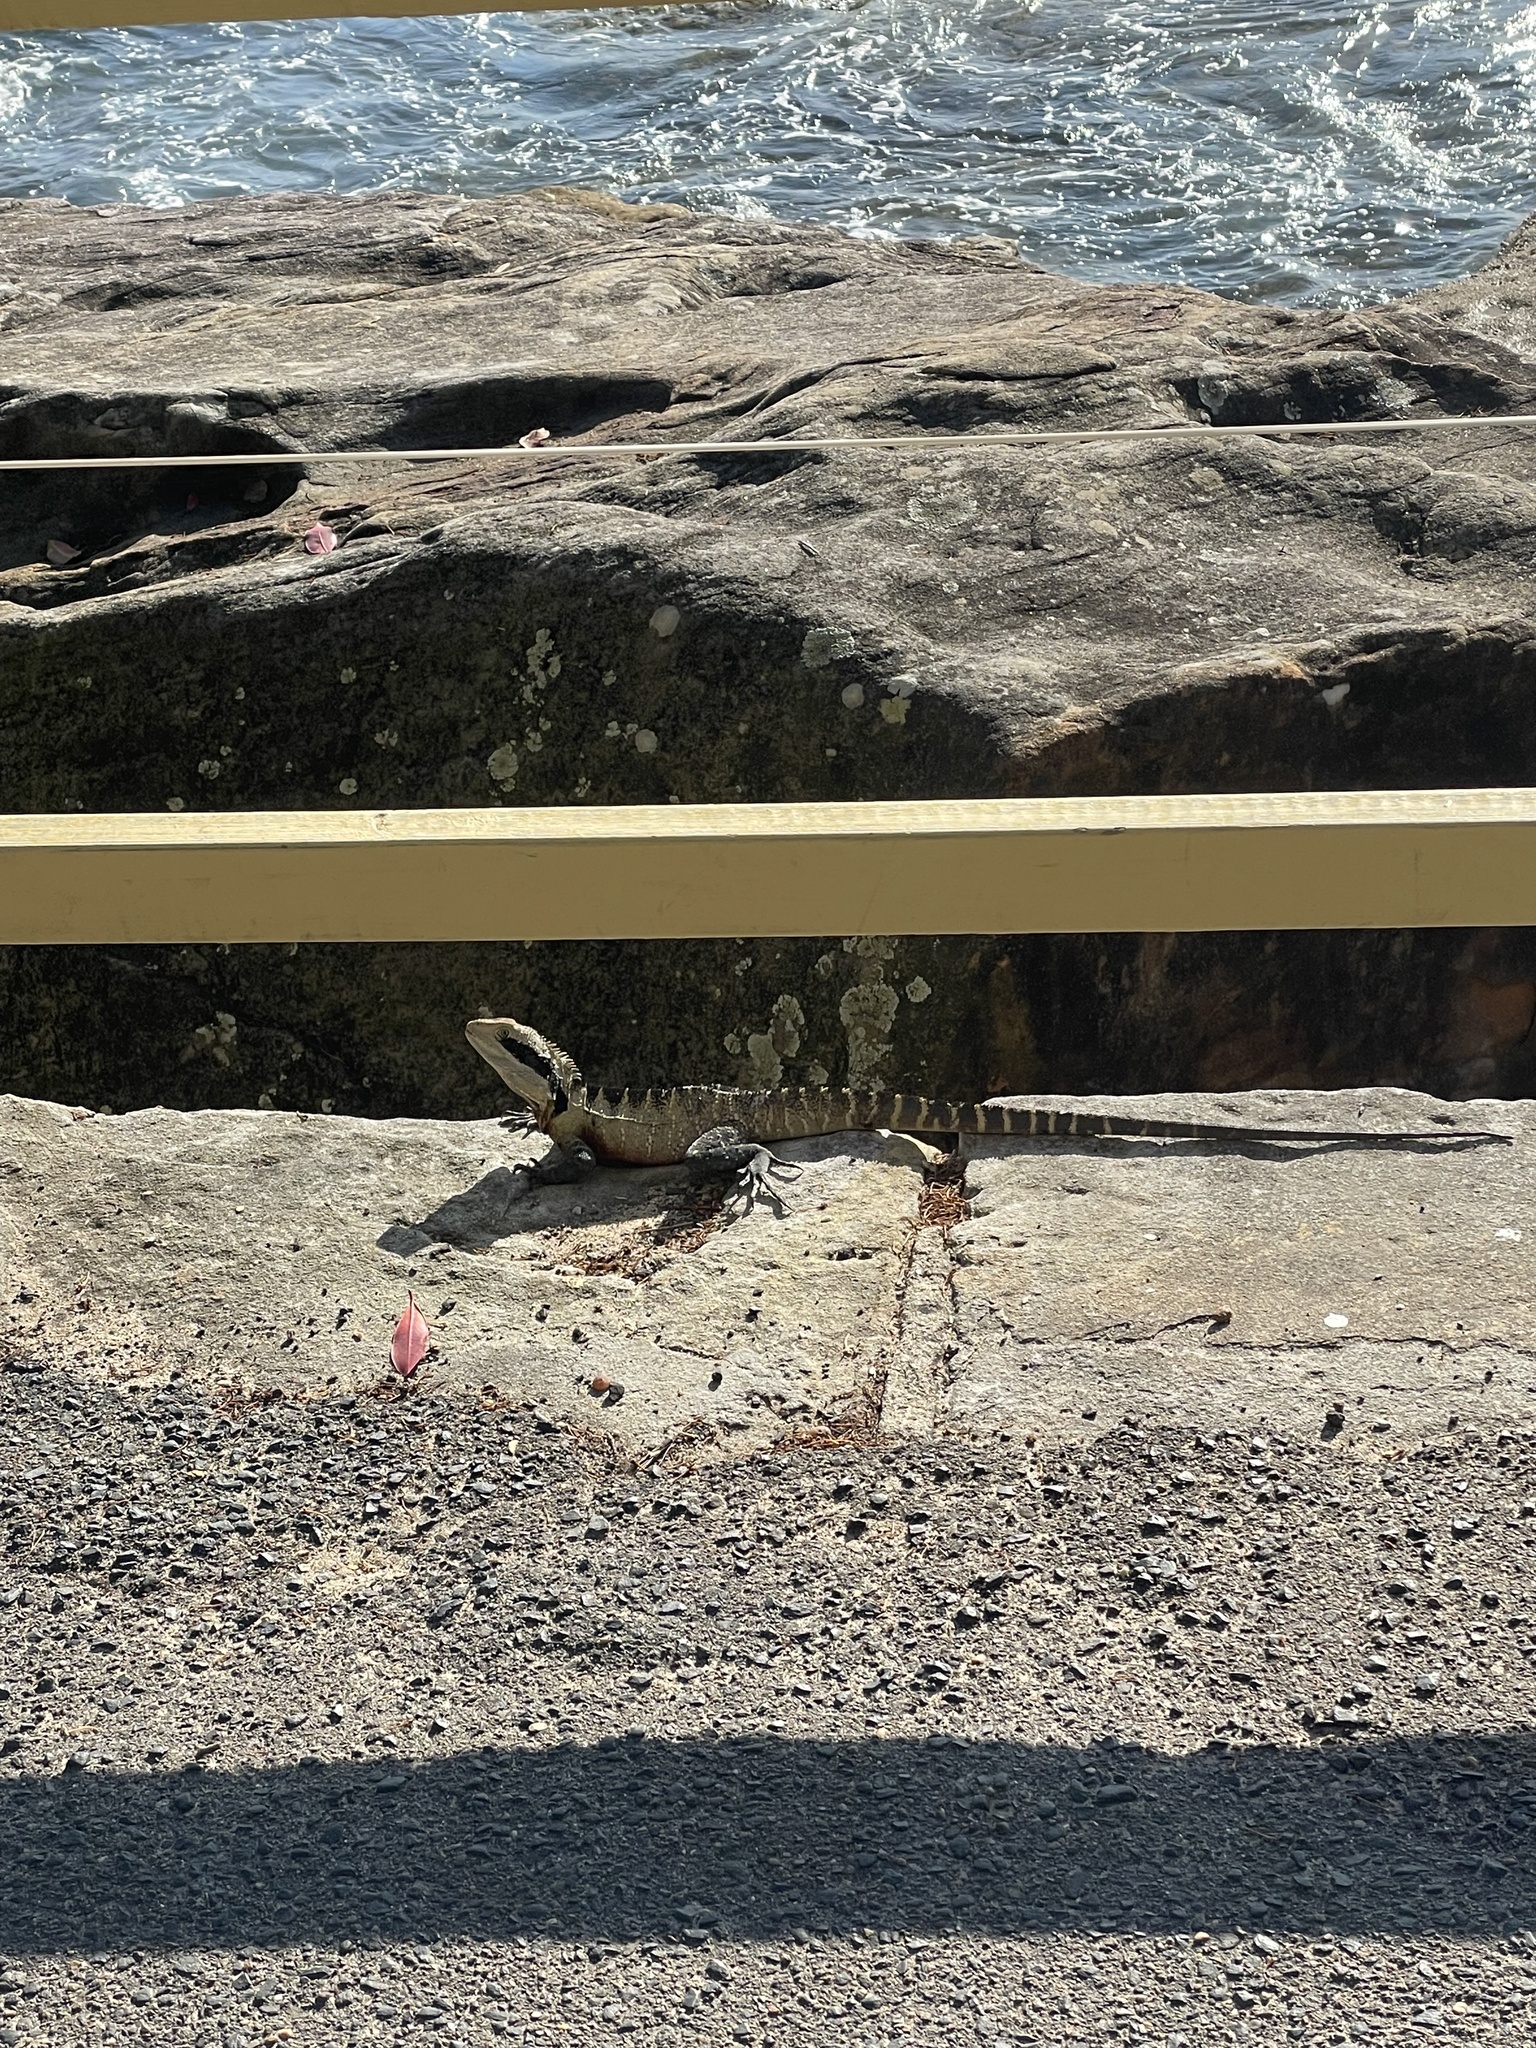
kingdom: Animalia
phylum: Chordata
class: Squamata
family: Agamidae
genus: Intellagama
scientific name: Intellagama lesueurii
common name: Eastern water dragon
